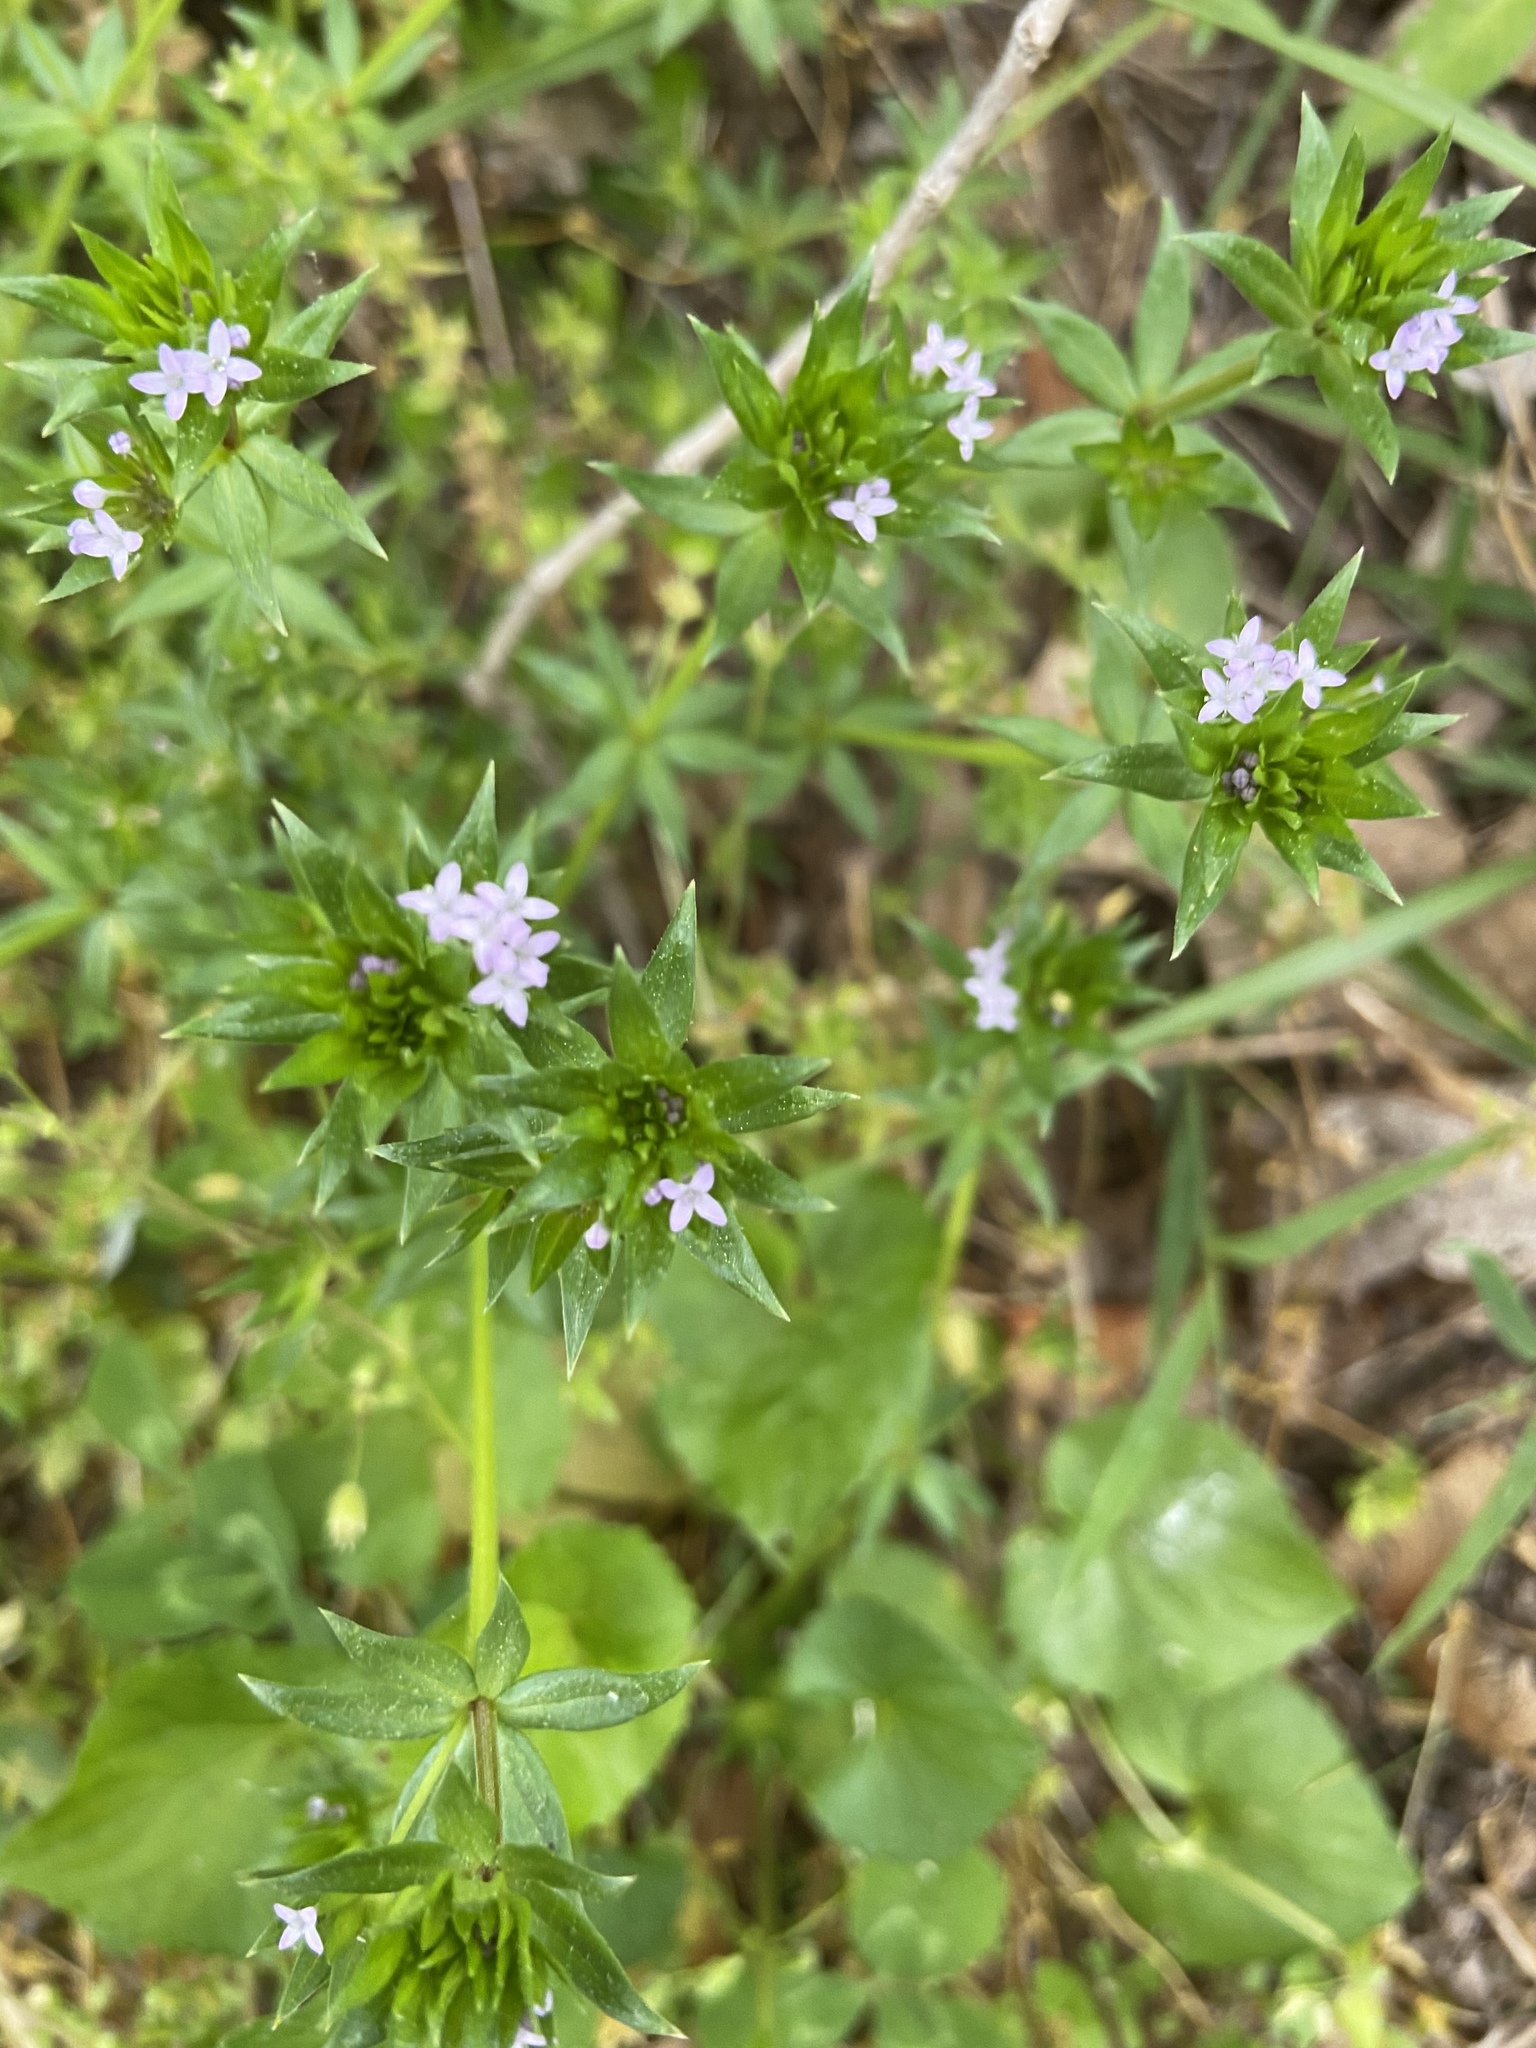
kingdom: Plantae
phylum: Tracheophyta
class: Magnoliopsida
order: Gentianales
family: Rubiaceae
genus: Sherardia
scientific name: Sherardia arvensis
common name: Field madder
